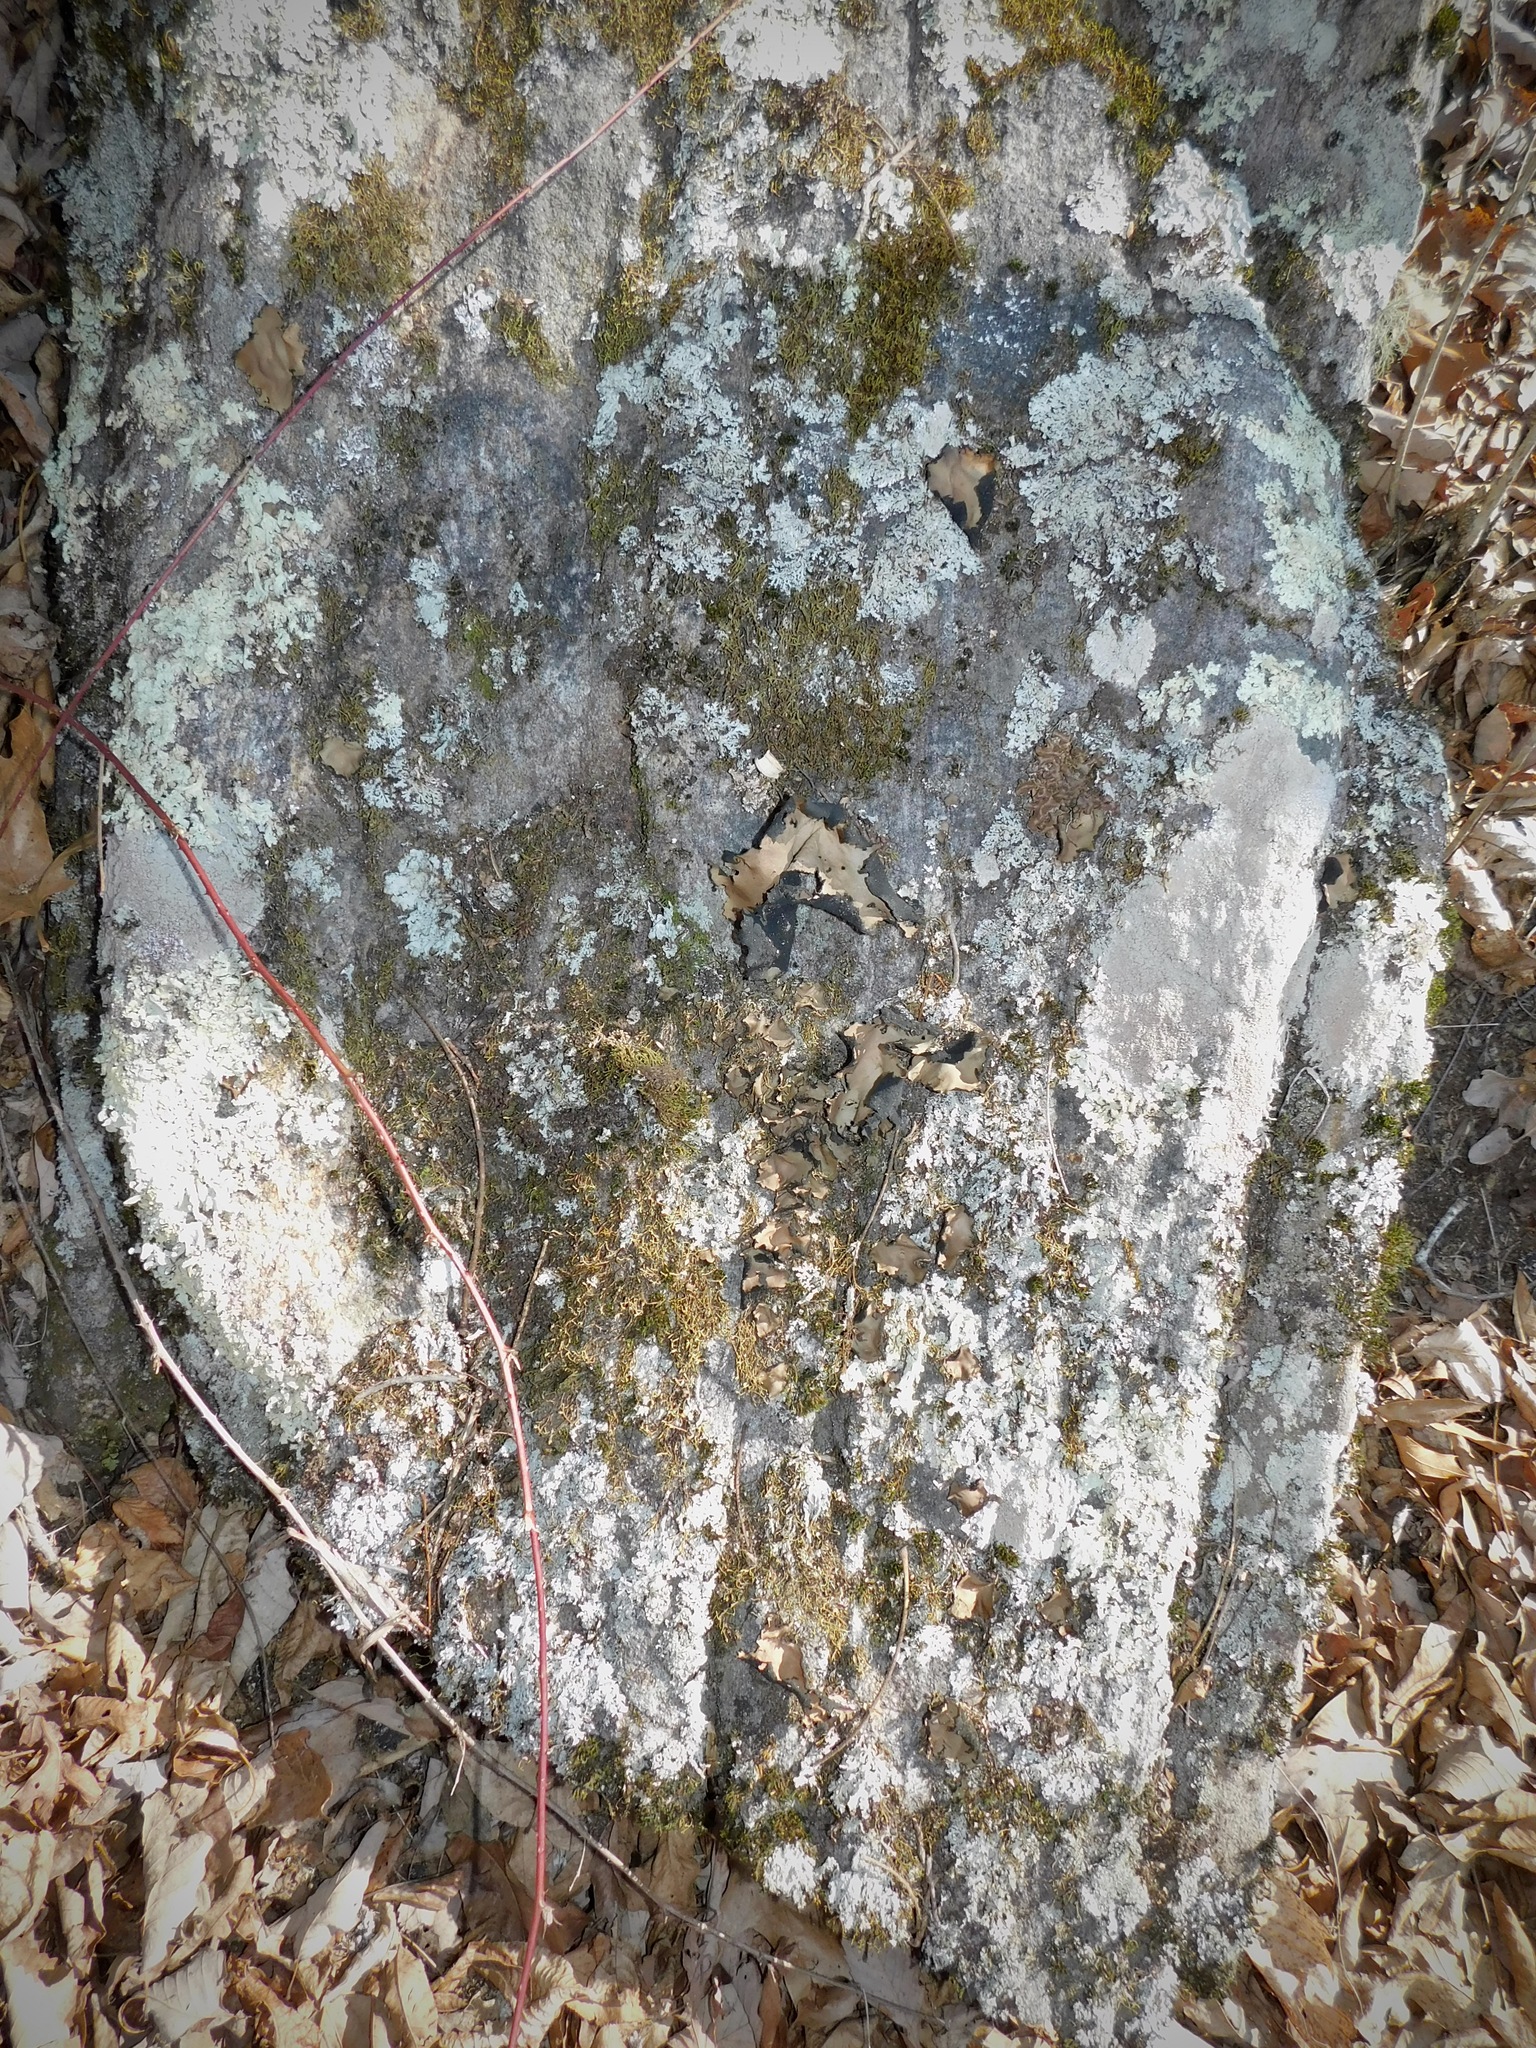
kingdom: Fungi
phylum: Ascomycota
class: Lecanoromycetes
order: Umbilicariales
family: Umbilicariaceae
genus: Umbilicaria
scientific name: Umbilicaria mammulata
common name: Smooth rock tripe
